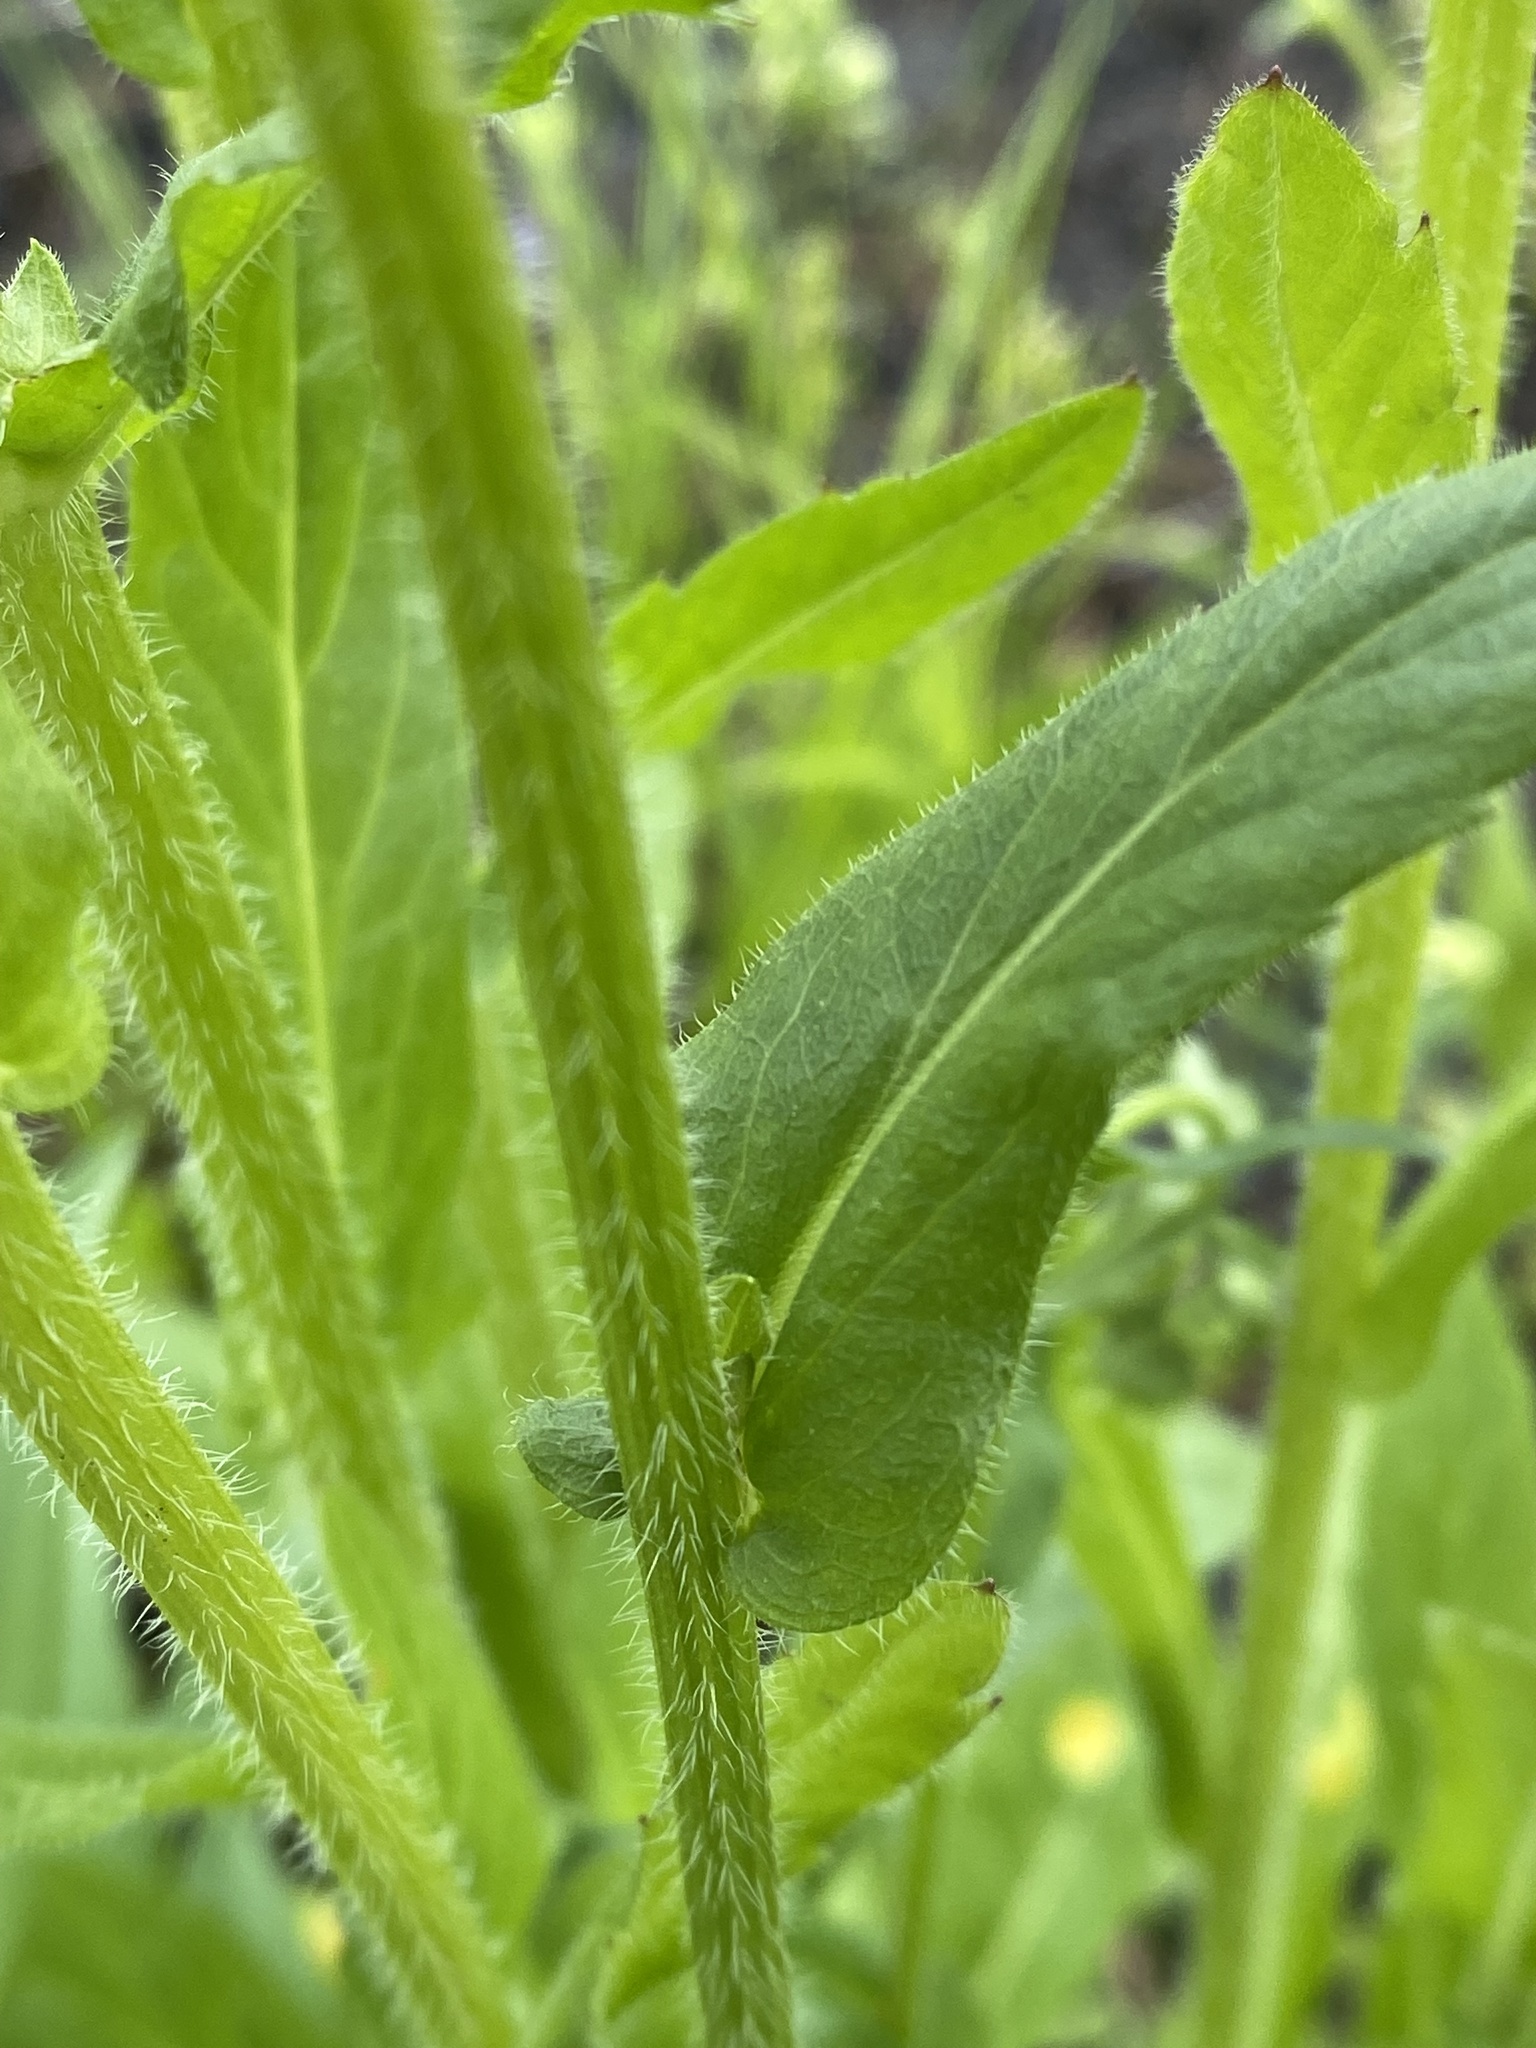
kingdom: Plantae
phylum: Tracheophyta
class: Magnoliopsida
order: Asterales
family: Asteraceae
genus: Erigeron
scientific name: Erigeron philadelphicus
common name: Robin's-plantain
